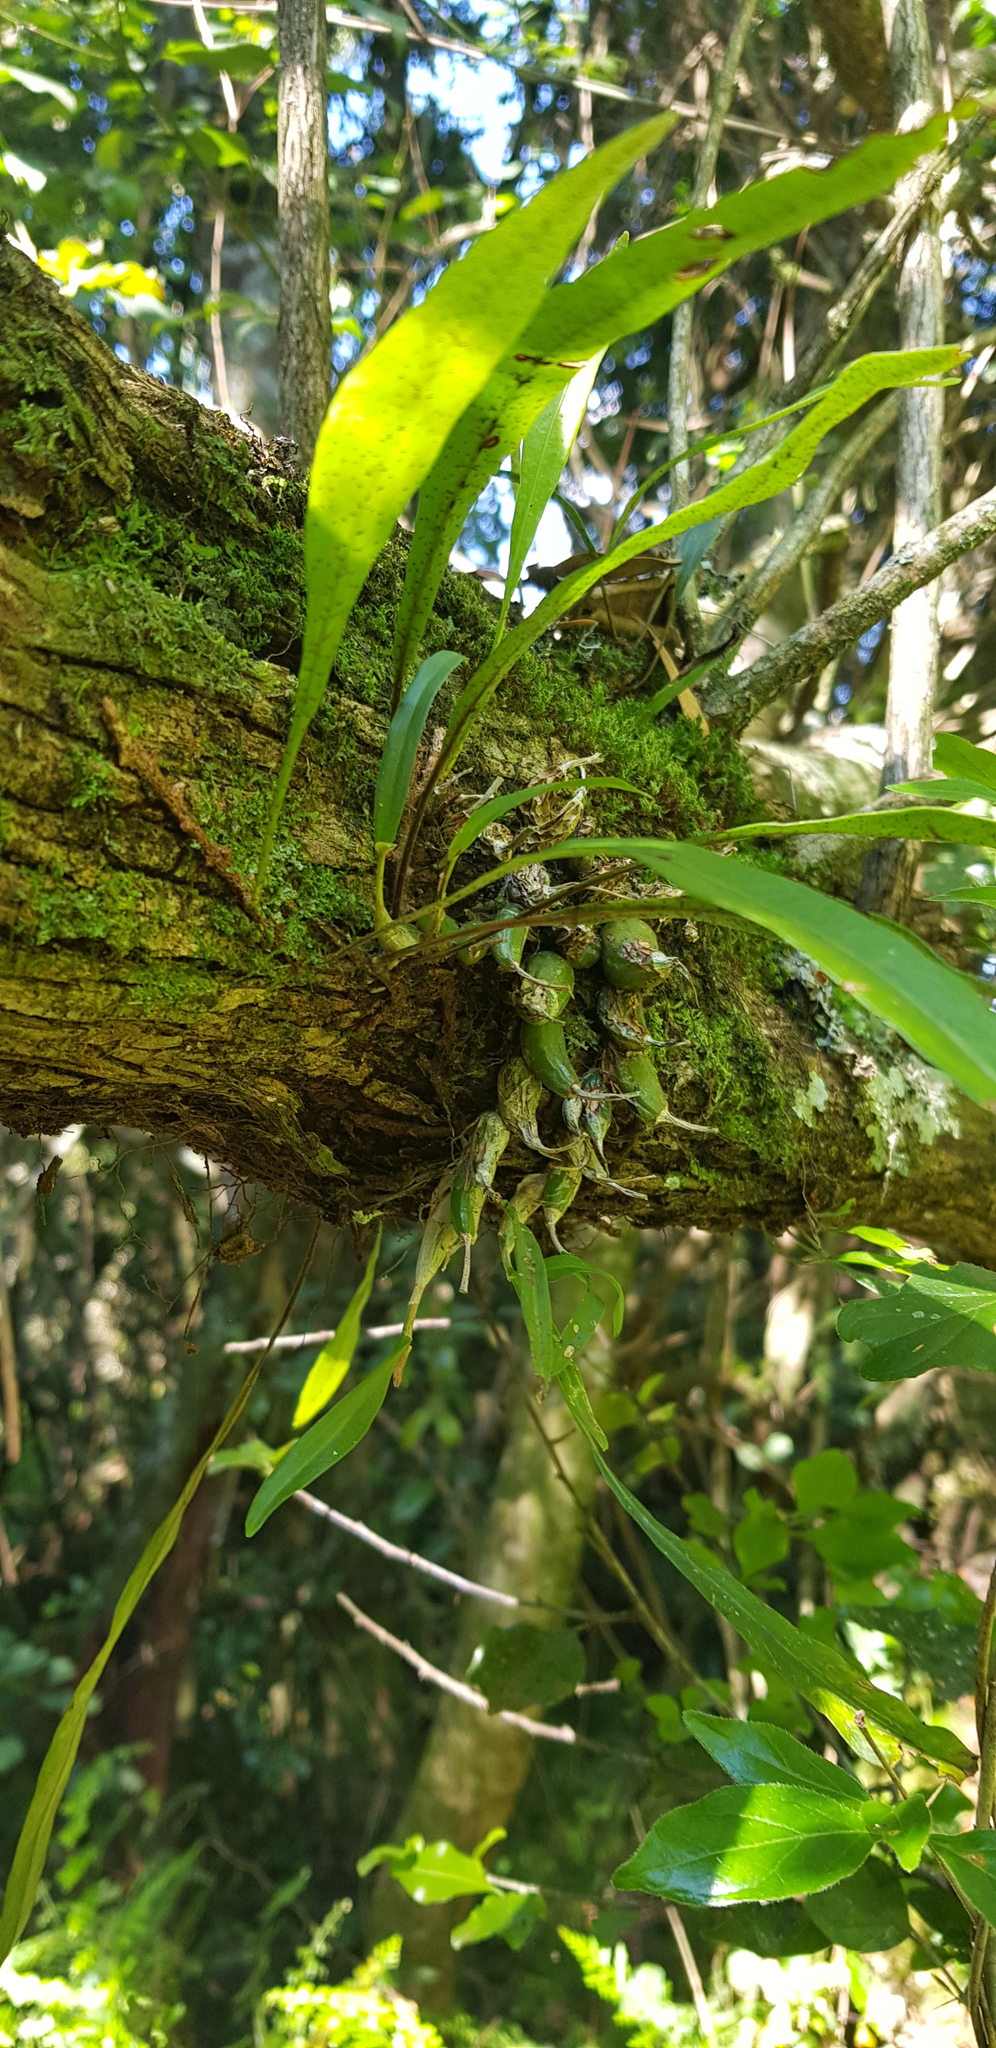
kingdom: Plantae
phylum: Tracheophyta
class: Liliopsida
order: Asparagales
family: Orchidaceae
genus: Polystachya
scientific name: Polystachya ottoniana
